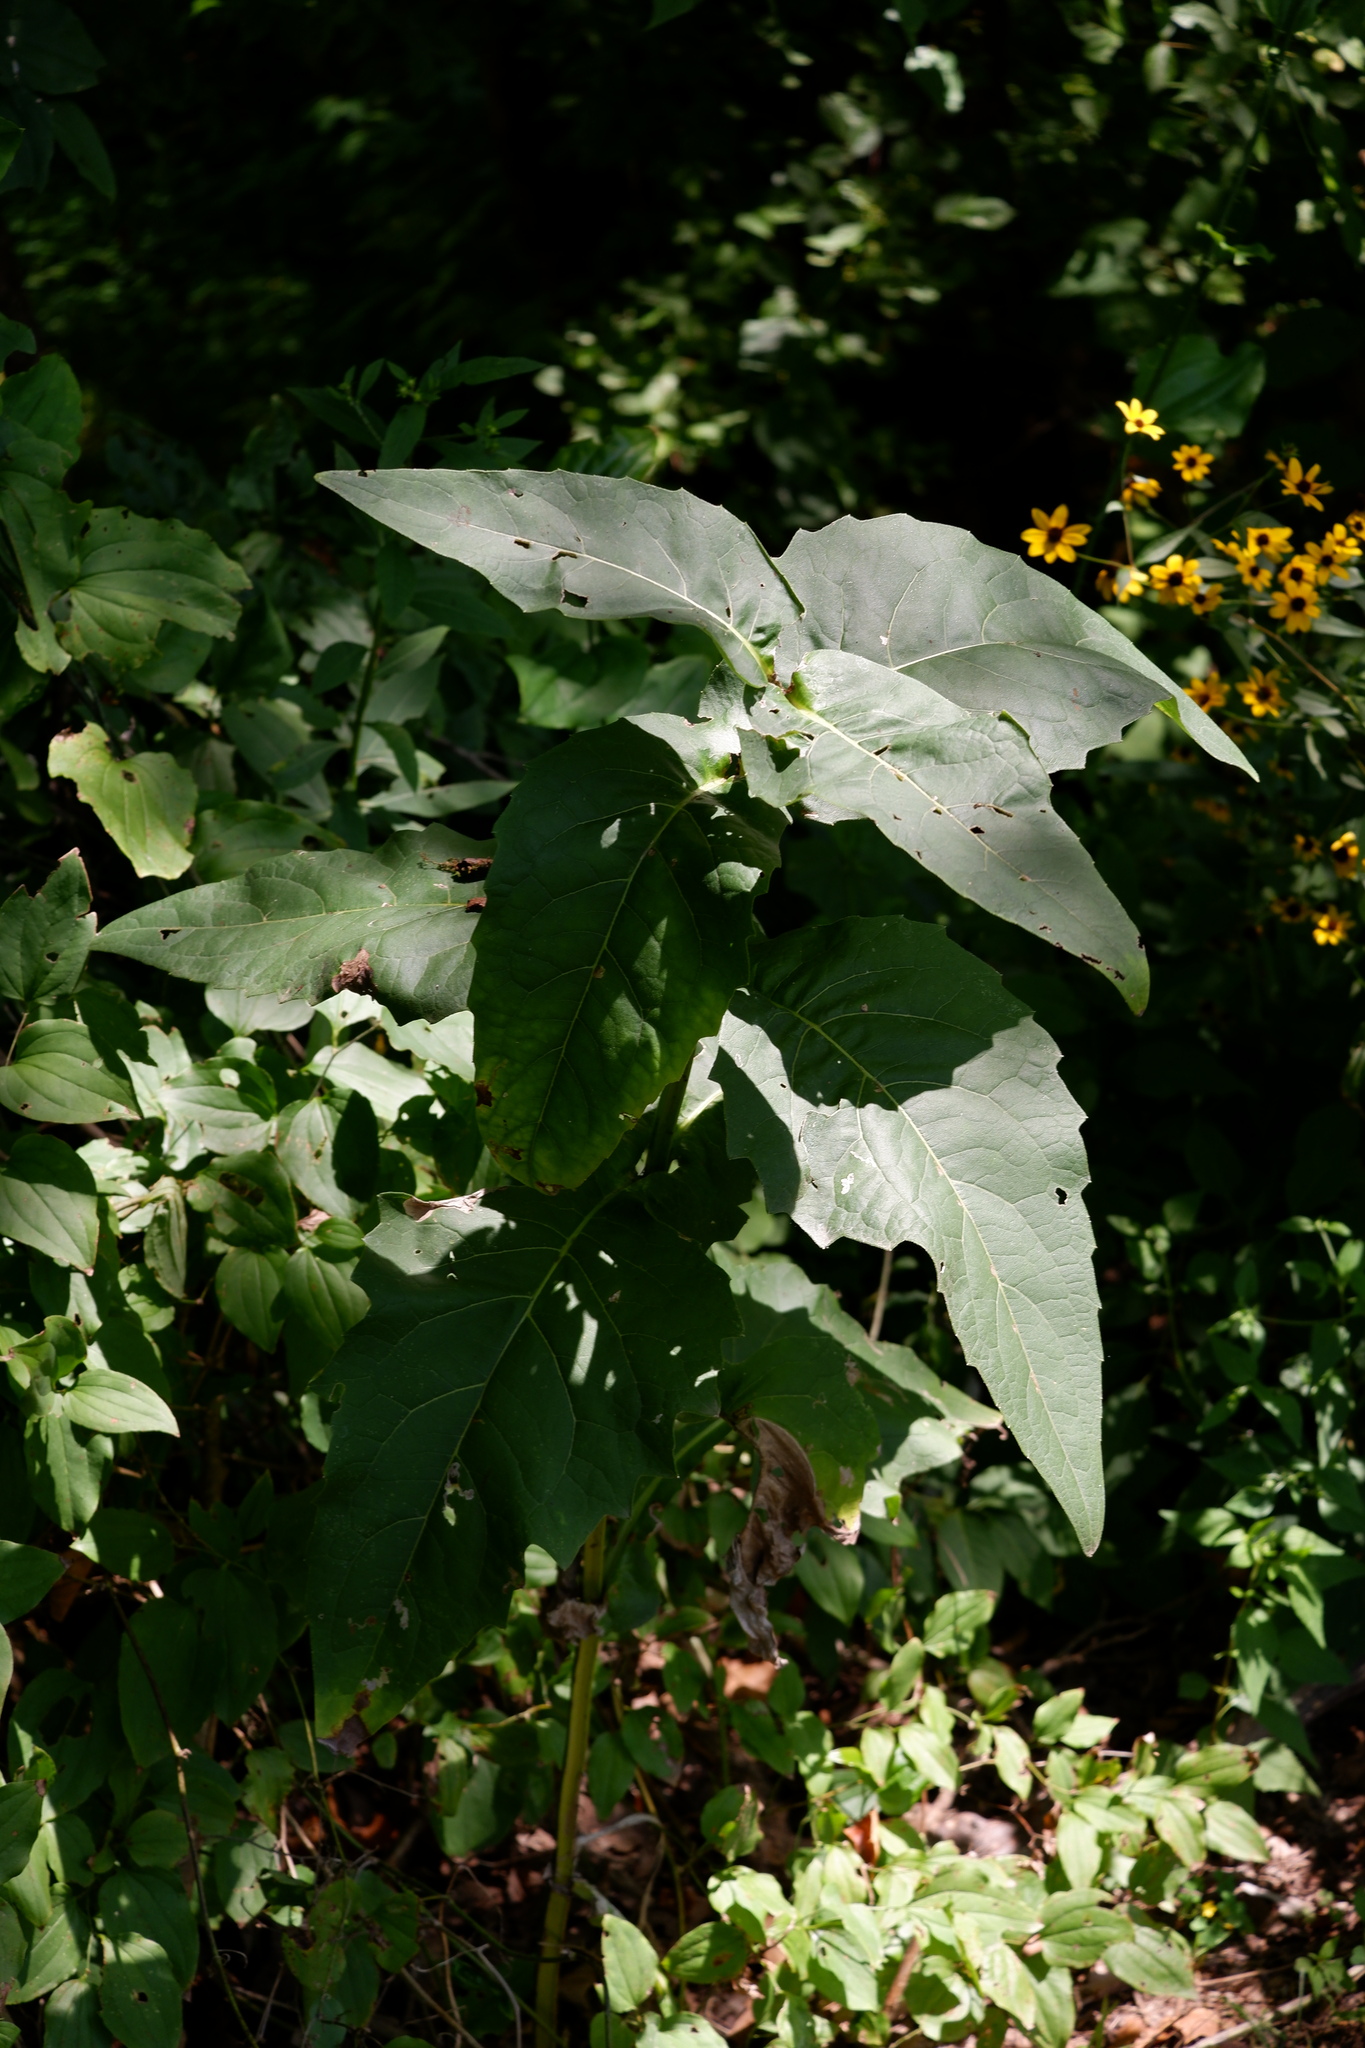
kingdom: Plantae
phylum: Tracheophyta
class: Magnoliopsida
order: Asterales
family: Asteraceae
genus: Silphium
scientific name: Silphium perfoliatum
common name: Cup-plant
